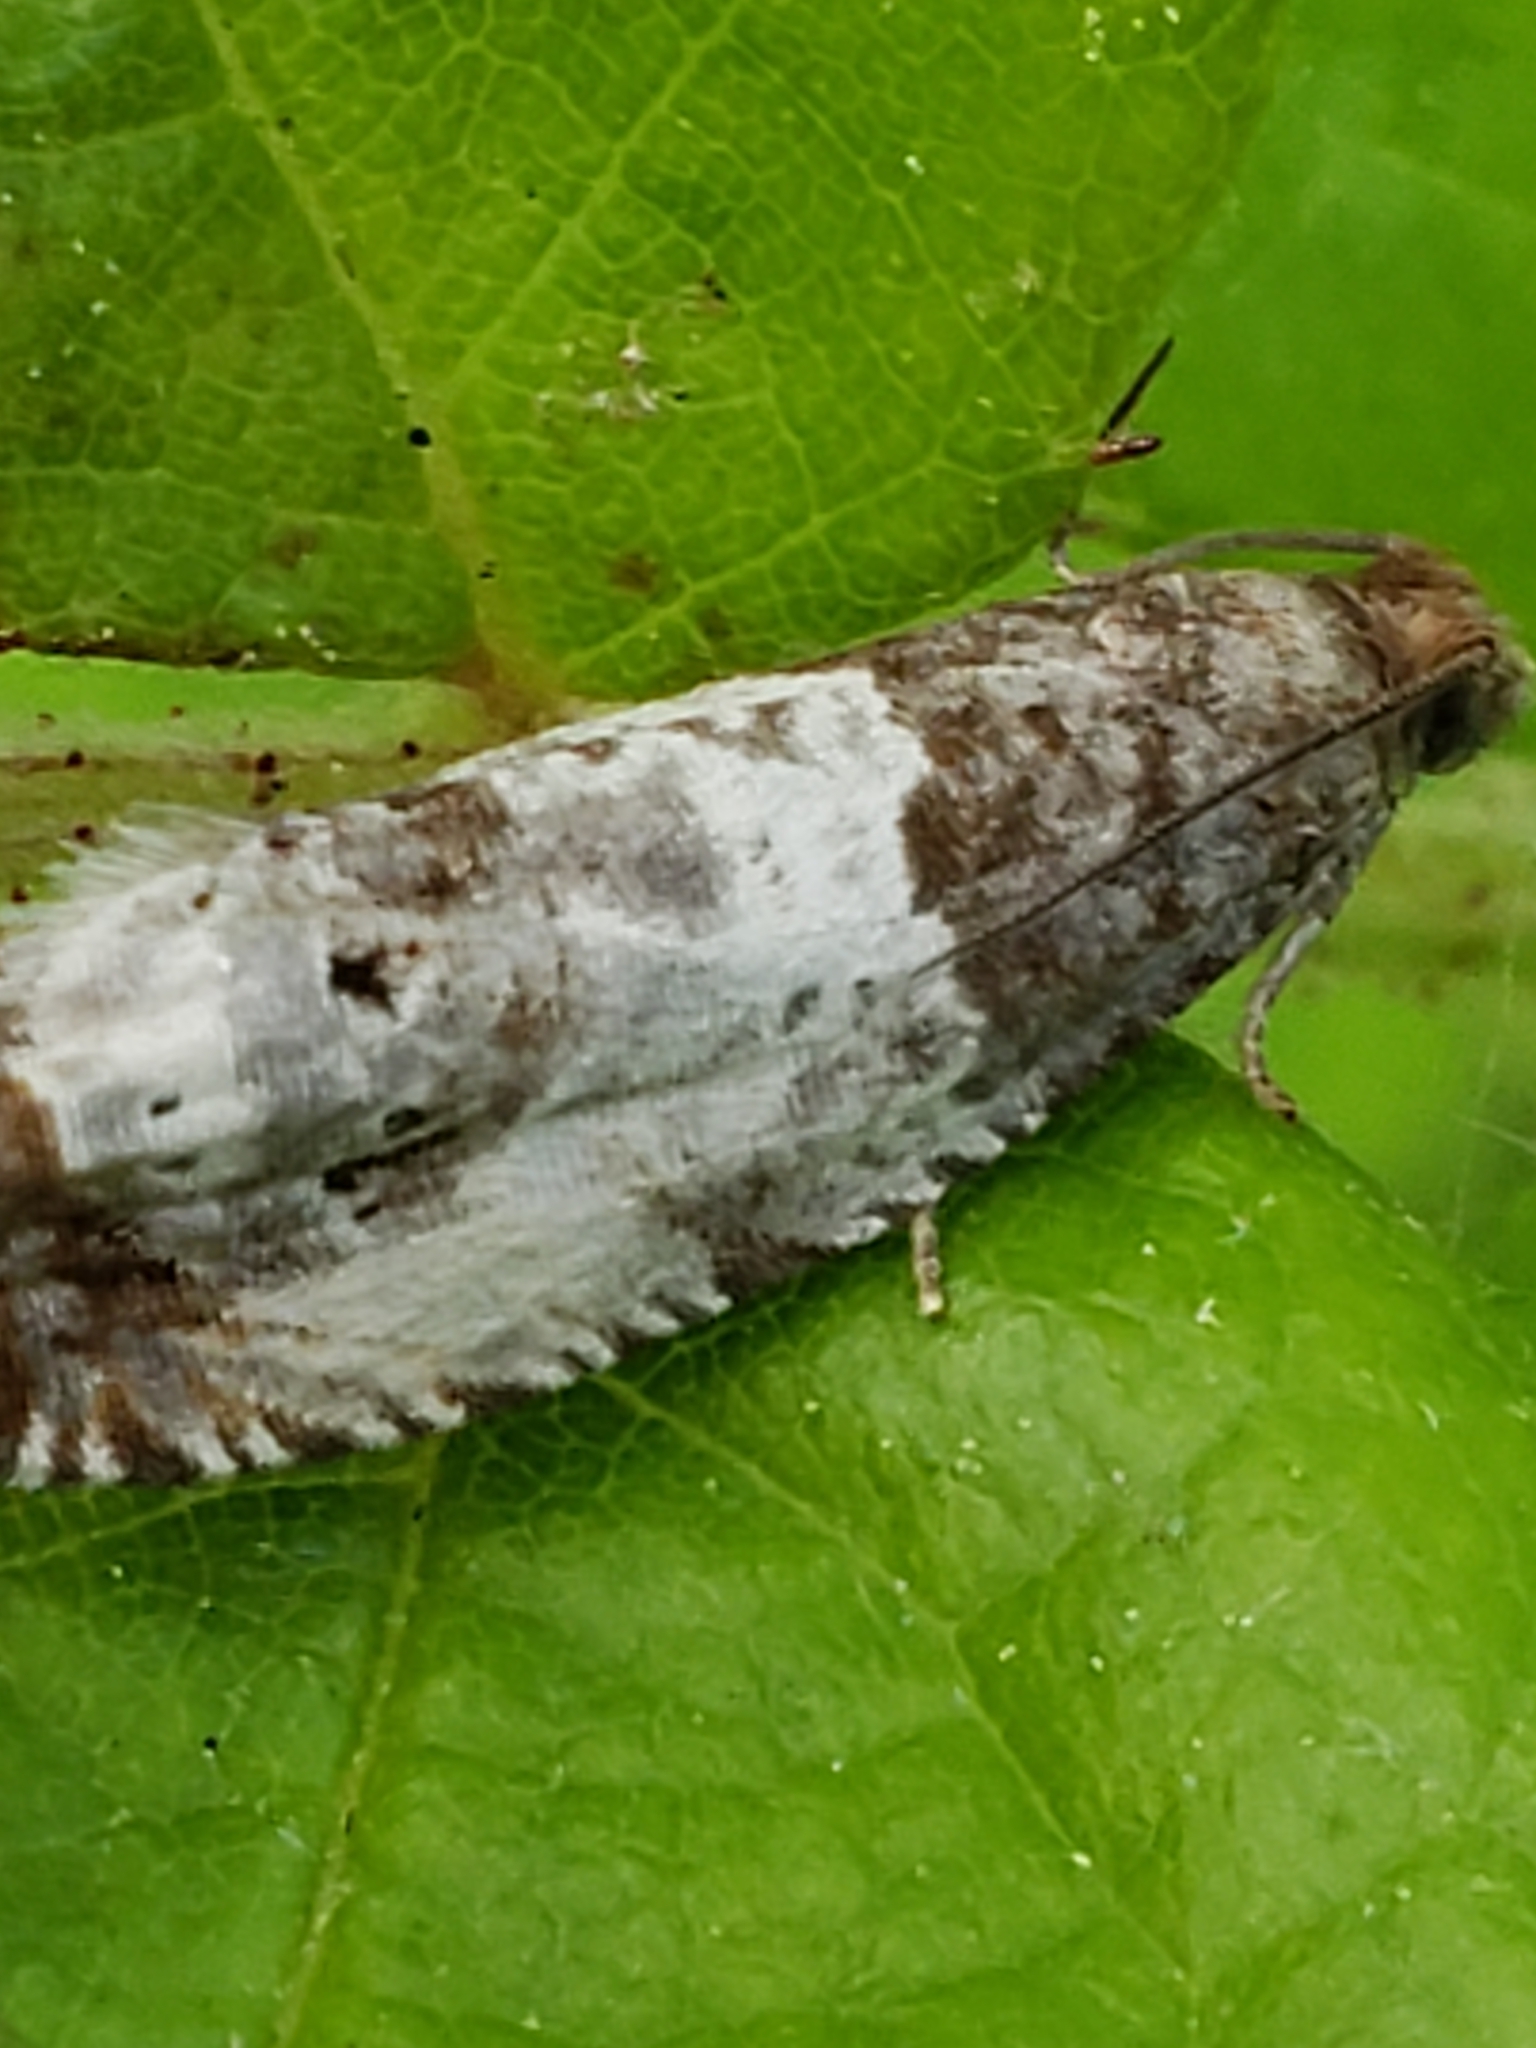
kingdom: Animalia
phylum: Arthropoda
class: Insecta
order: Lepidoptera
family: Tortricidae
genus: Notocelia
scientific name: Notocelia rosaecolana
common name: Common rose bell
